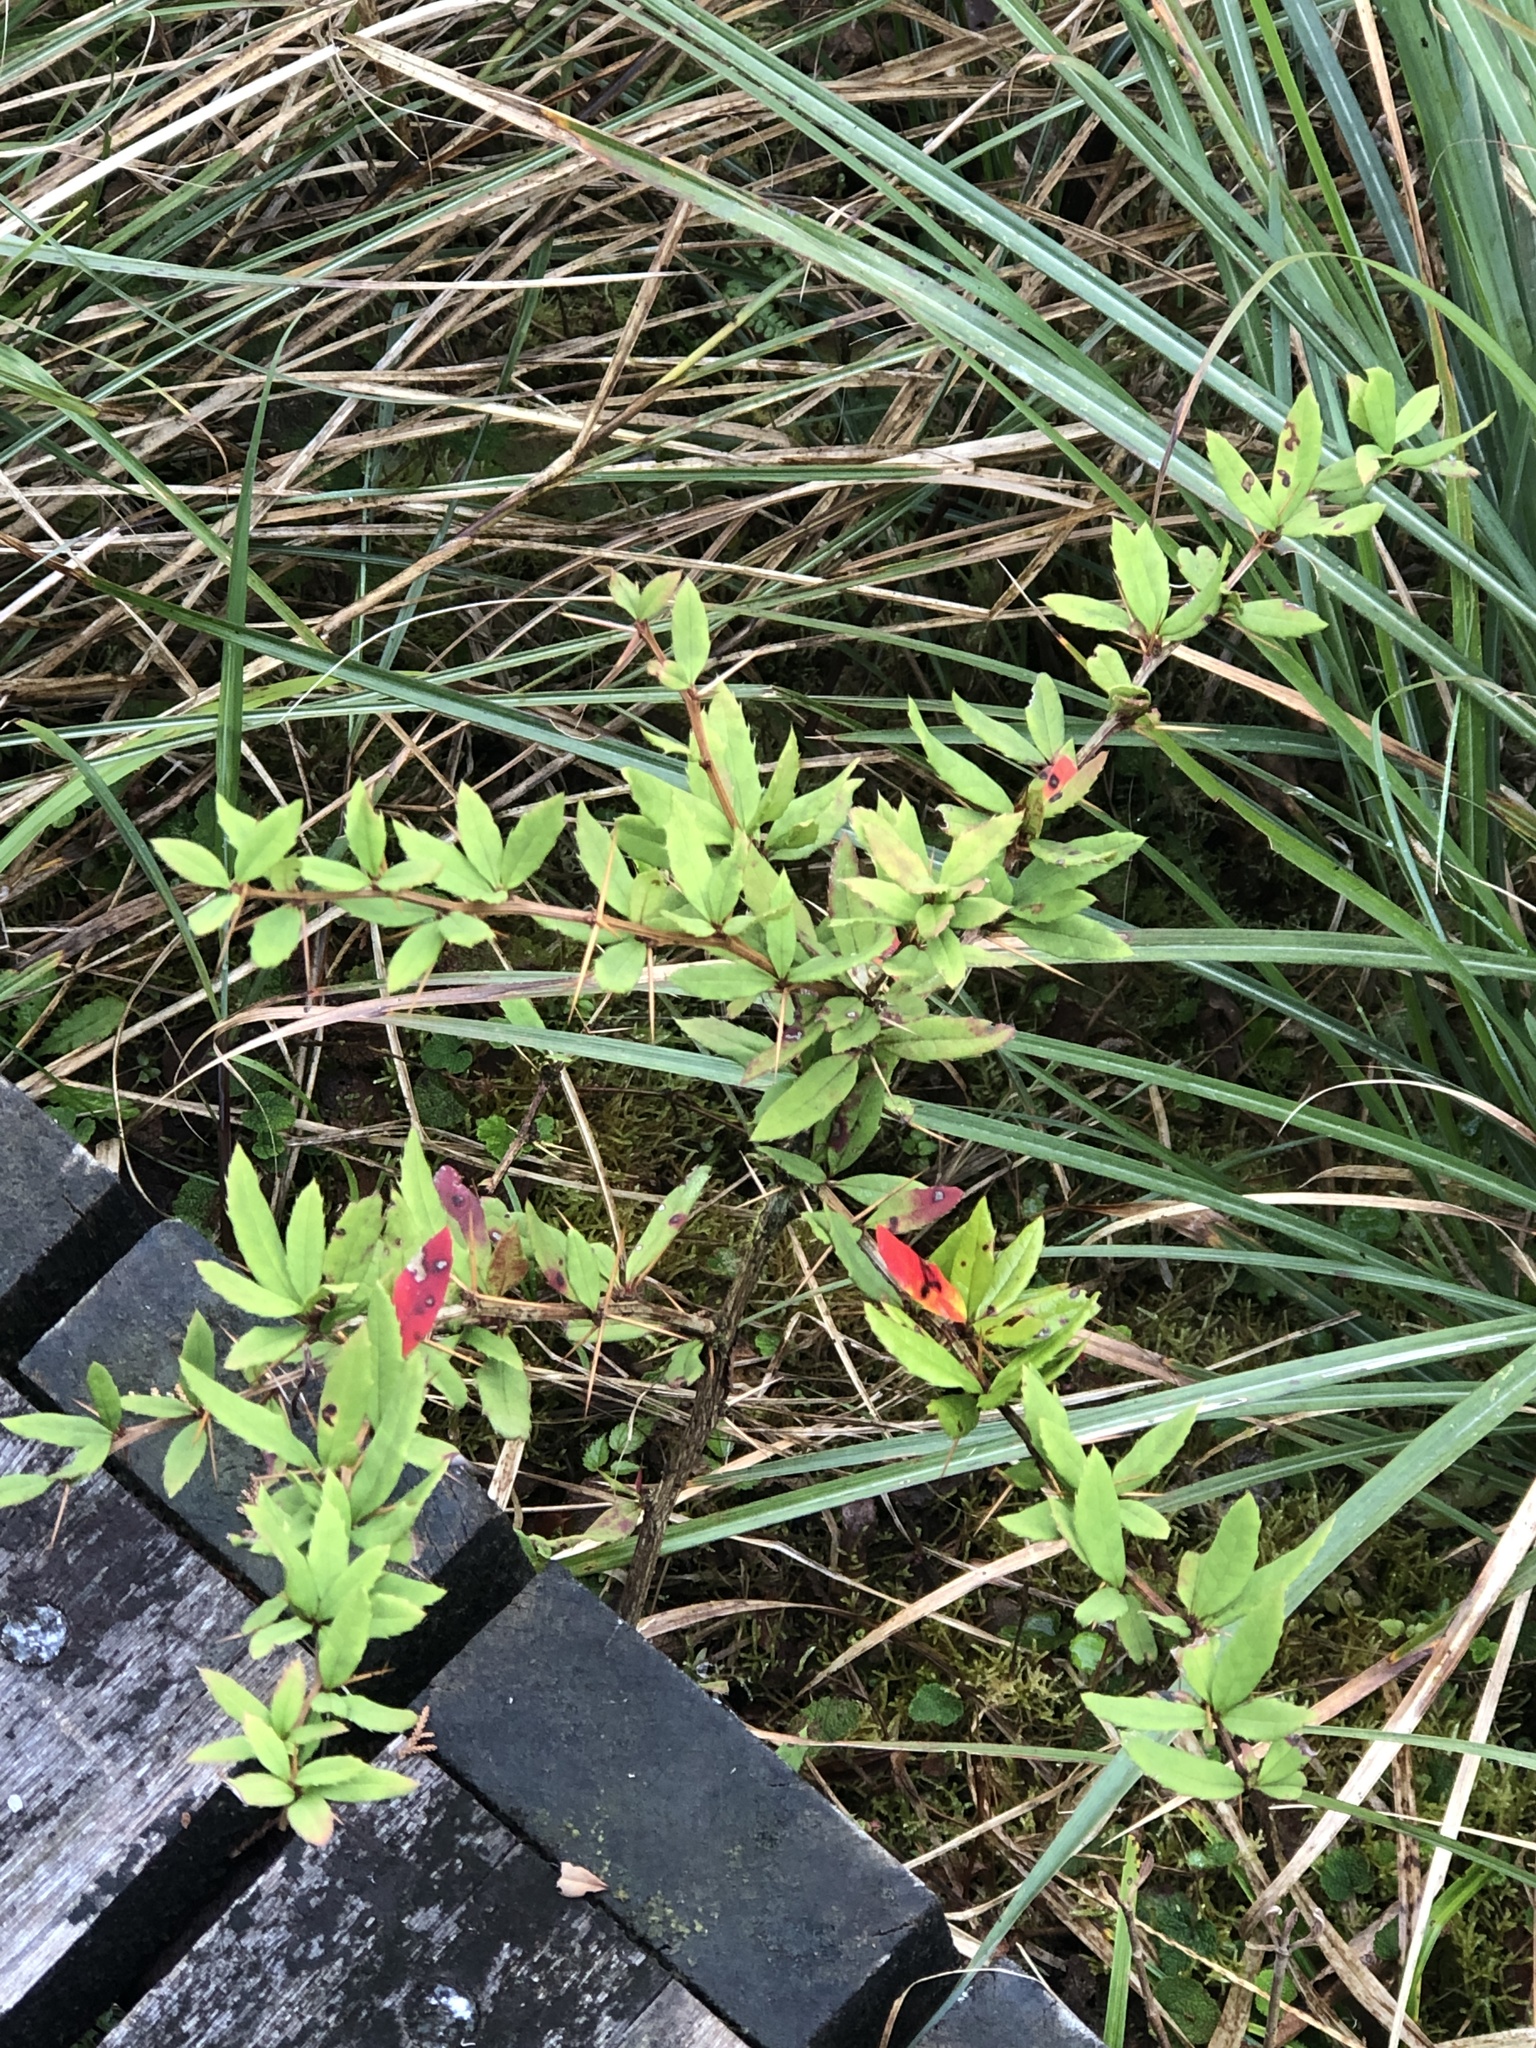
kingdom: Plantae
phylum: Tracheophyta
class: Magnoliopsida
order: Ranunculales
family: Berberidaceae
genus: Berberis
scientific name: Berberis hayatana
